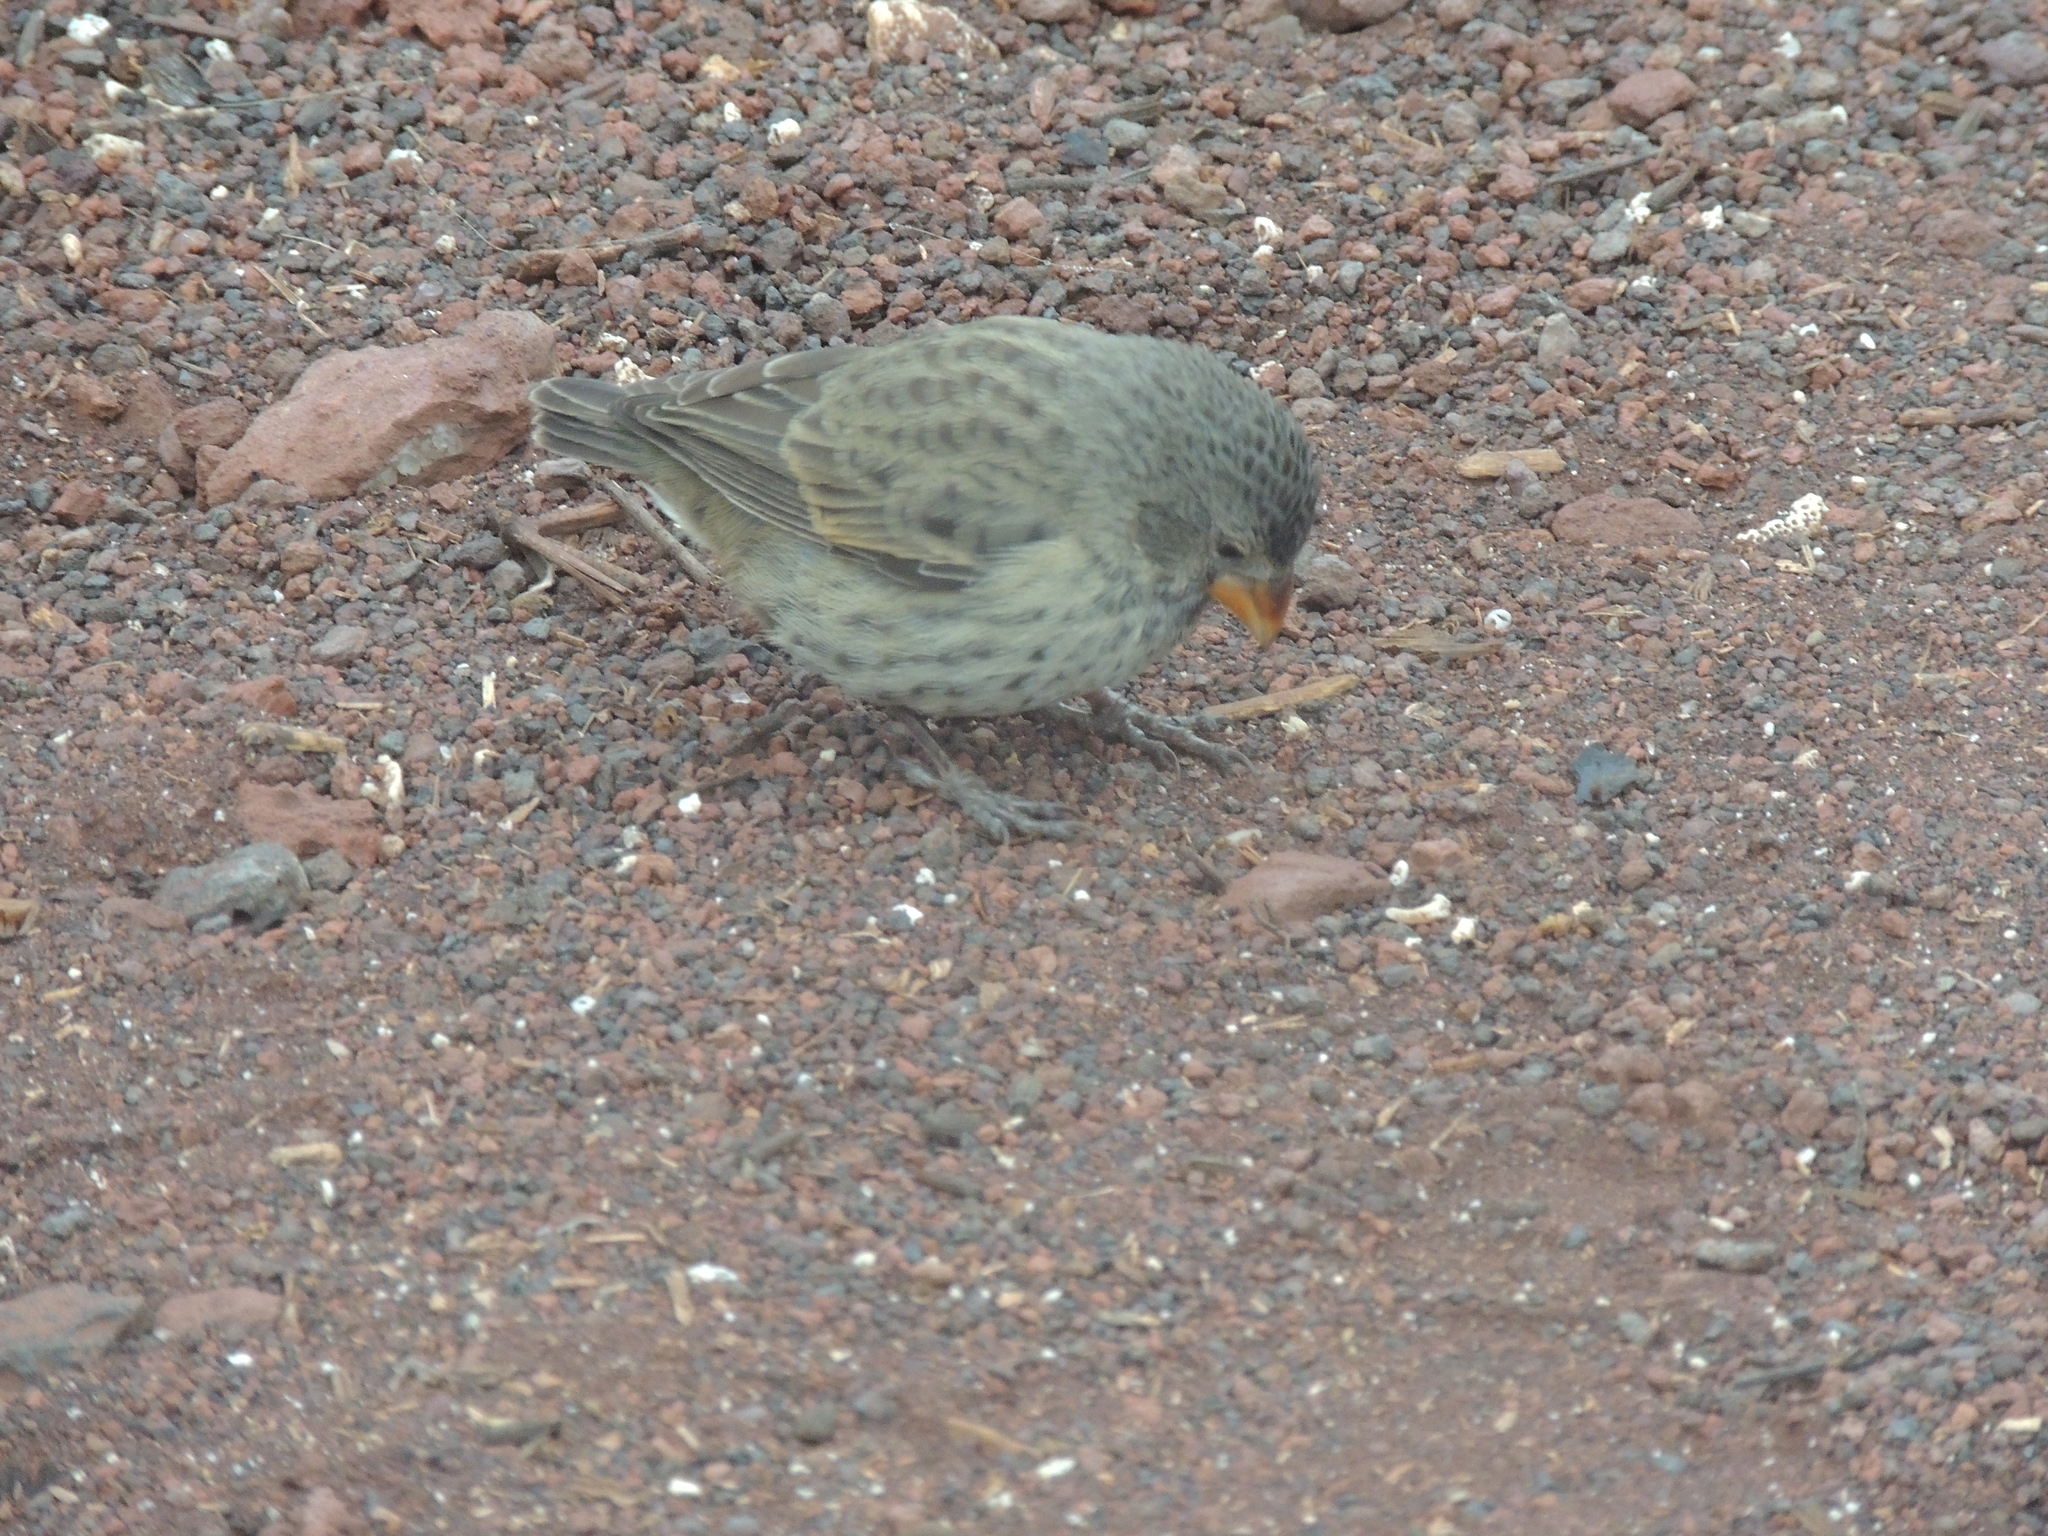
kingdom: Animalia
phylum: Chordata
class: Aves
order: Passeriformes
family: Thraupidae
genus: Geospiza
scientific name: Geospiza fuliginosa
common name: Small ground finch
